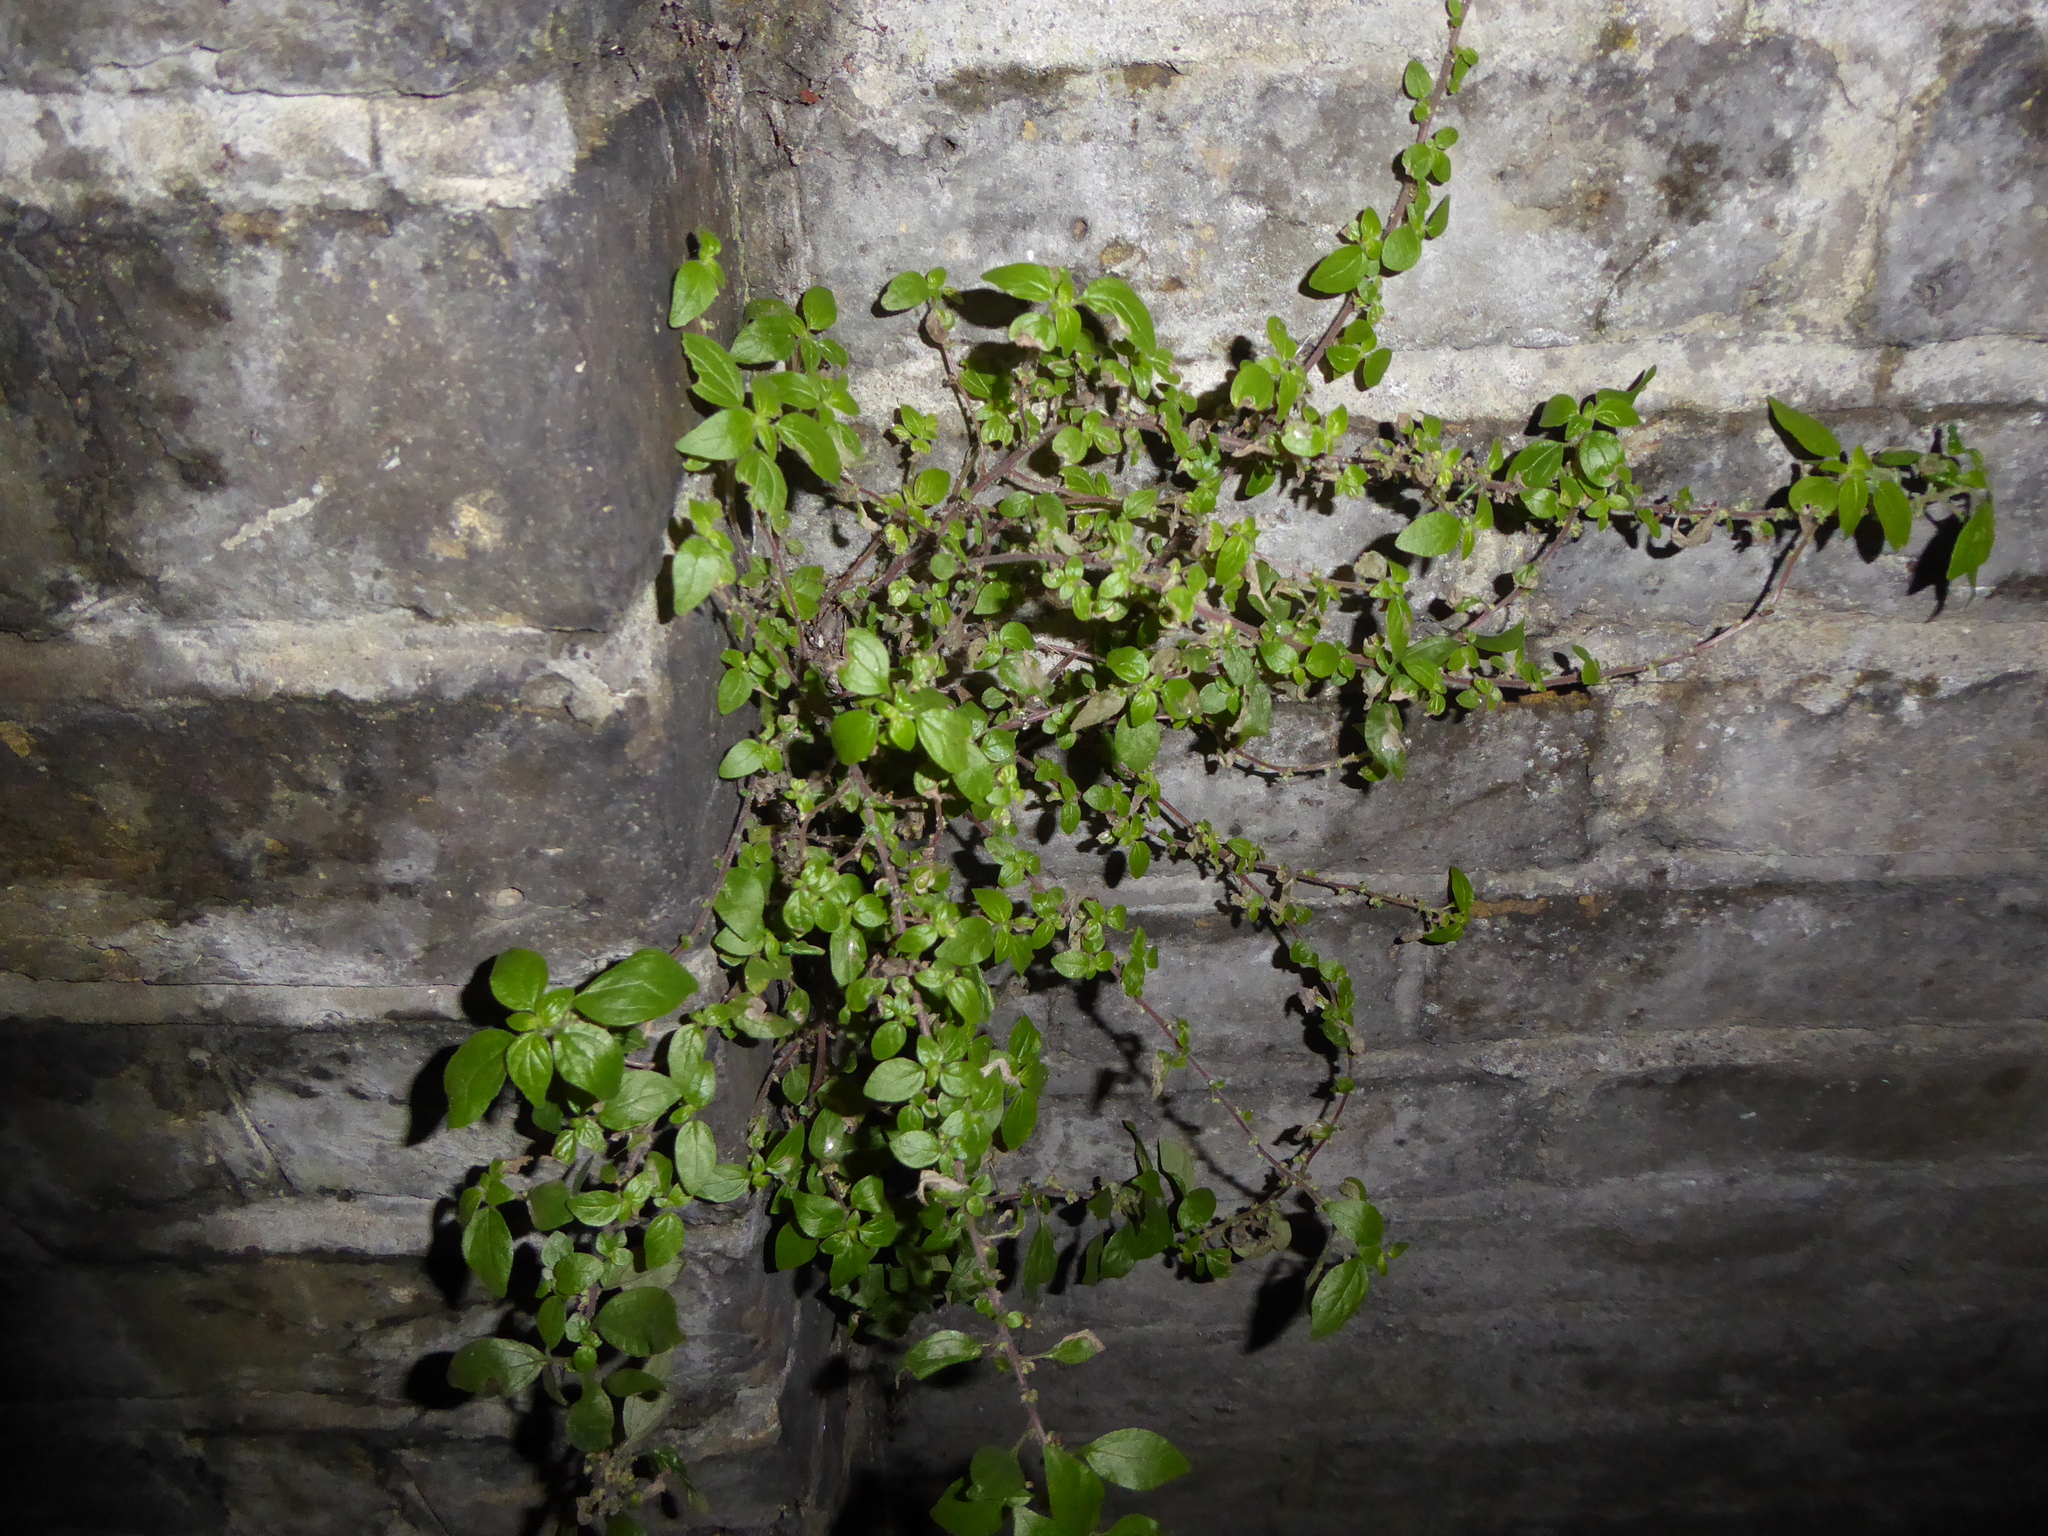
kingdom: Plantae
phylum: Tracheophyta
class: Magnoliopsida
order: Rosales
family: Urticaceae
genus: Parietaria
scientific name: Parietaria judaica
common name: Pellitory-of-the-wall
